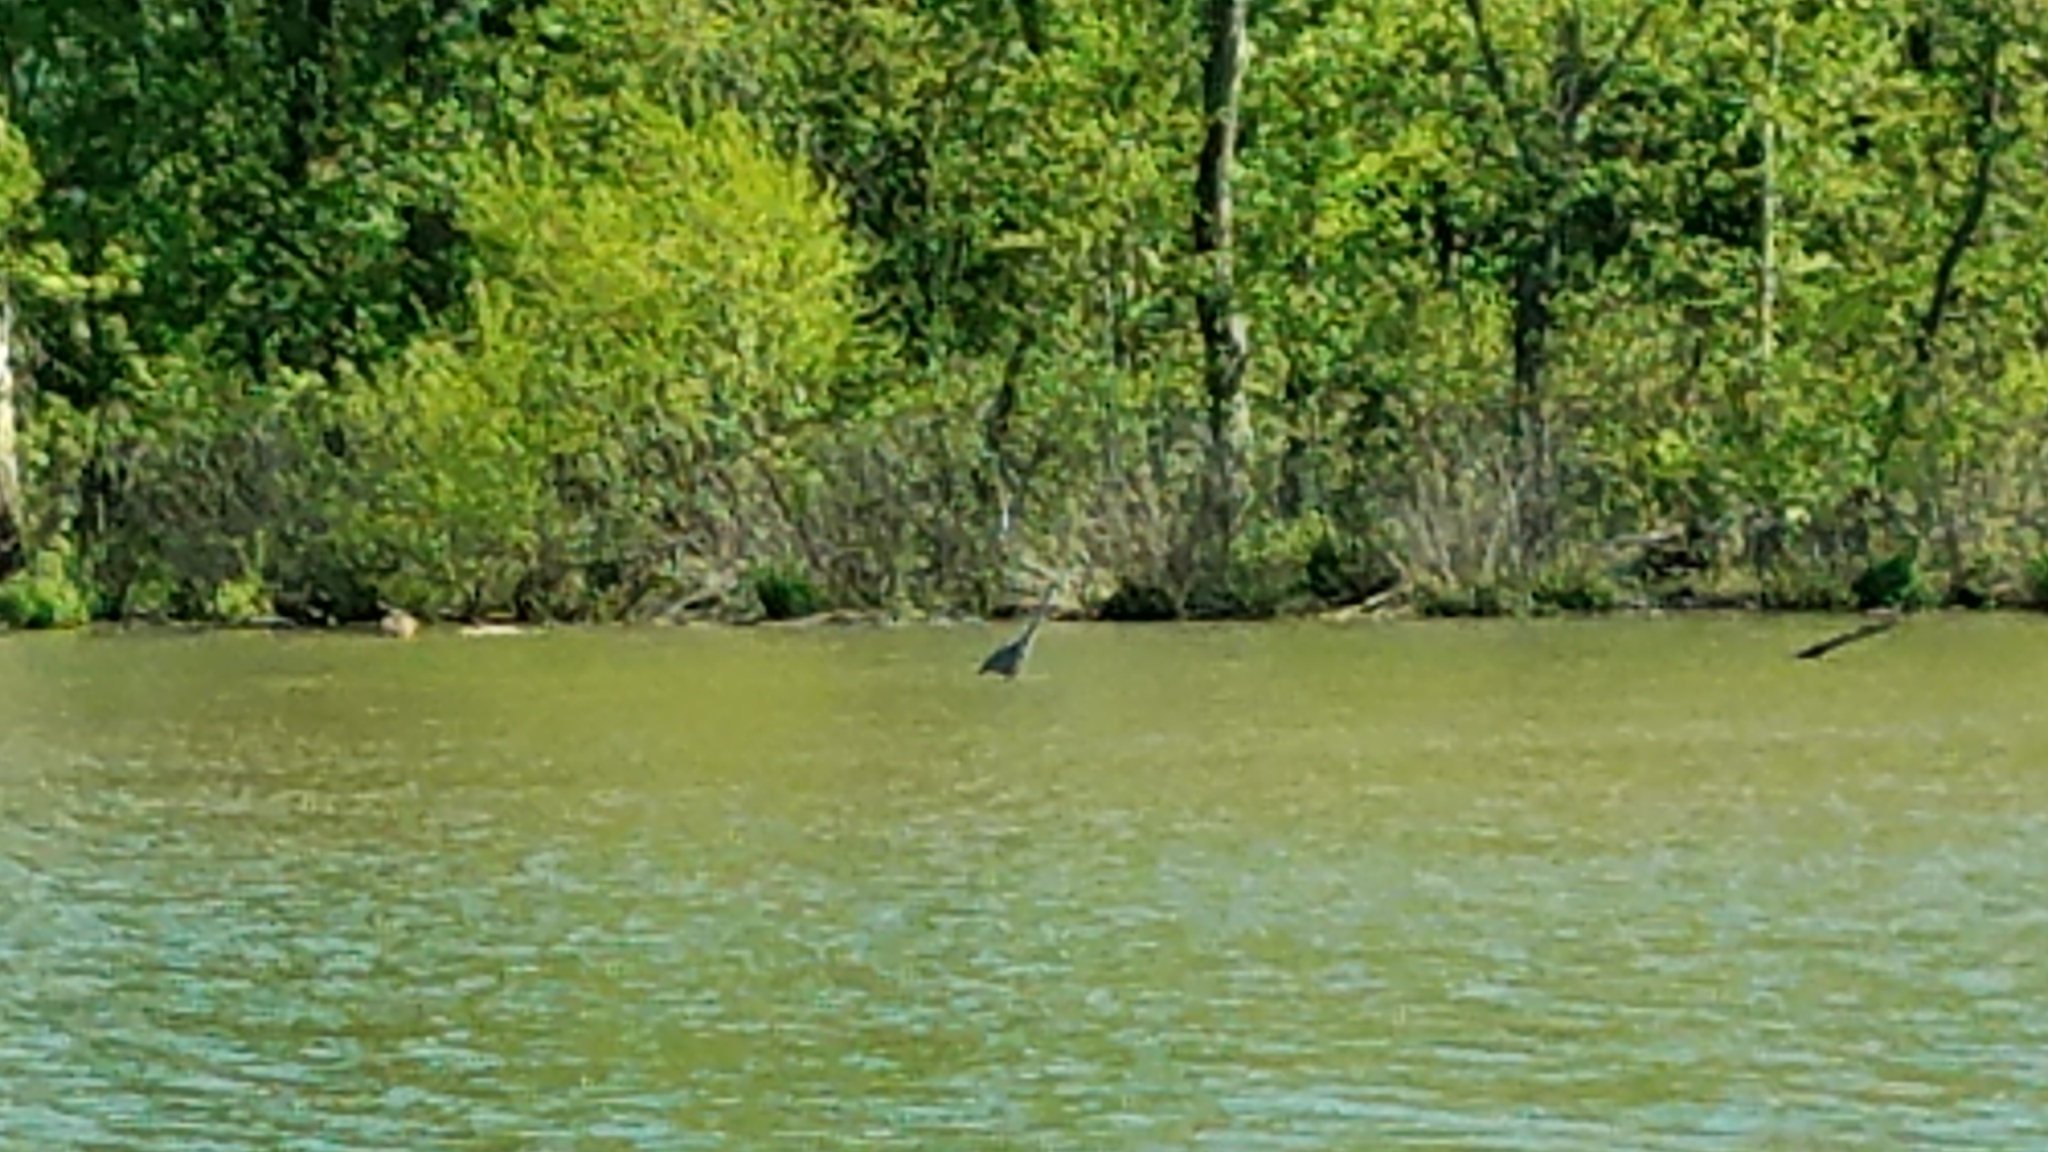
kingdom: Animalia
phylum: Chordata
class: Aves
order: Pelecaniformes
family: Ardeidae
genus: Ardea
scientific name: Ardea herodias
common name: Great blue heron
